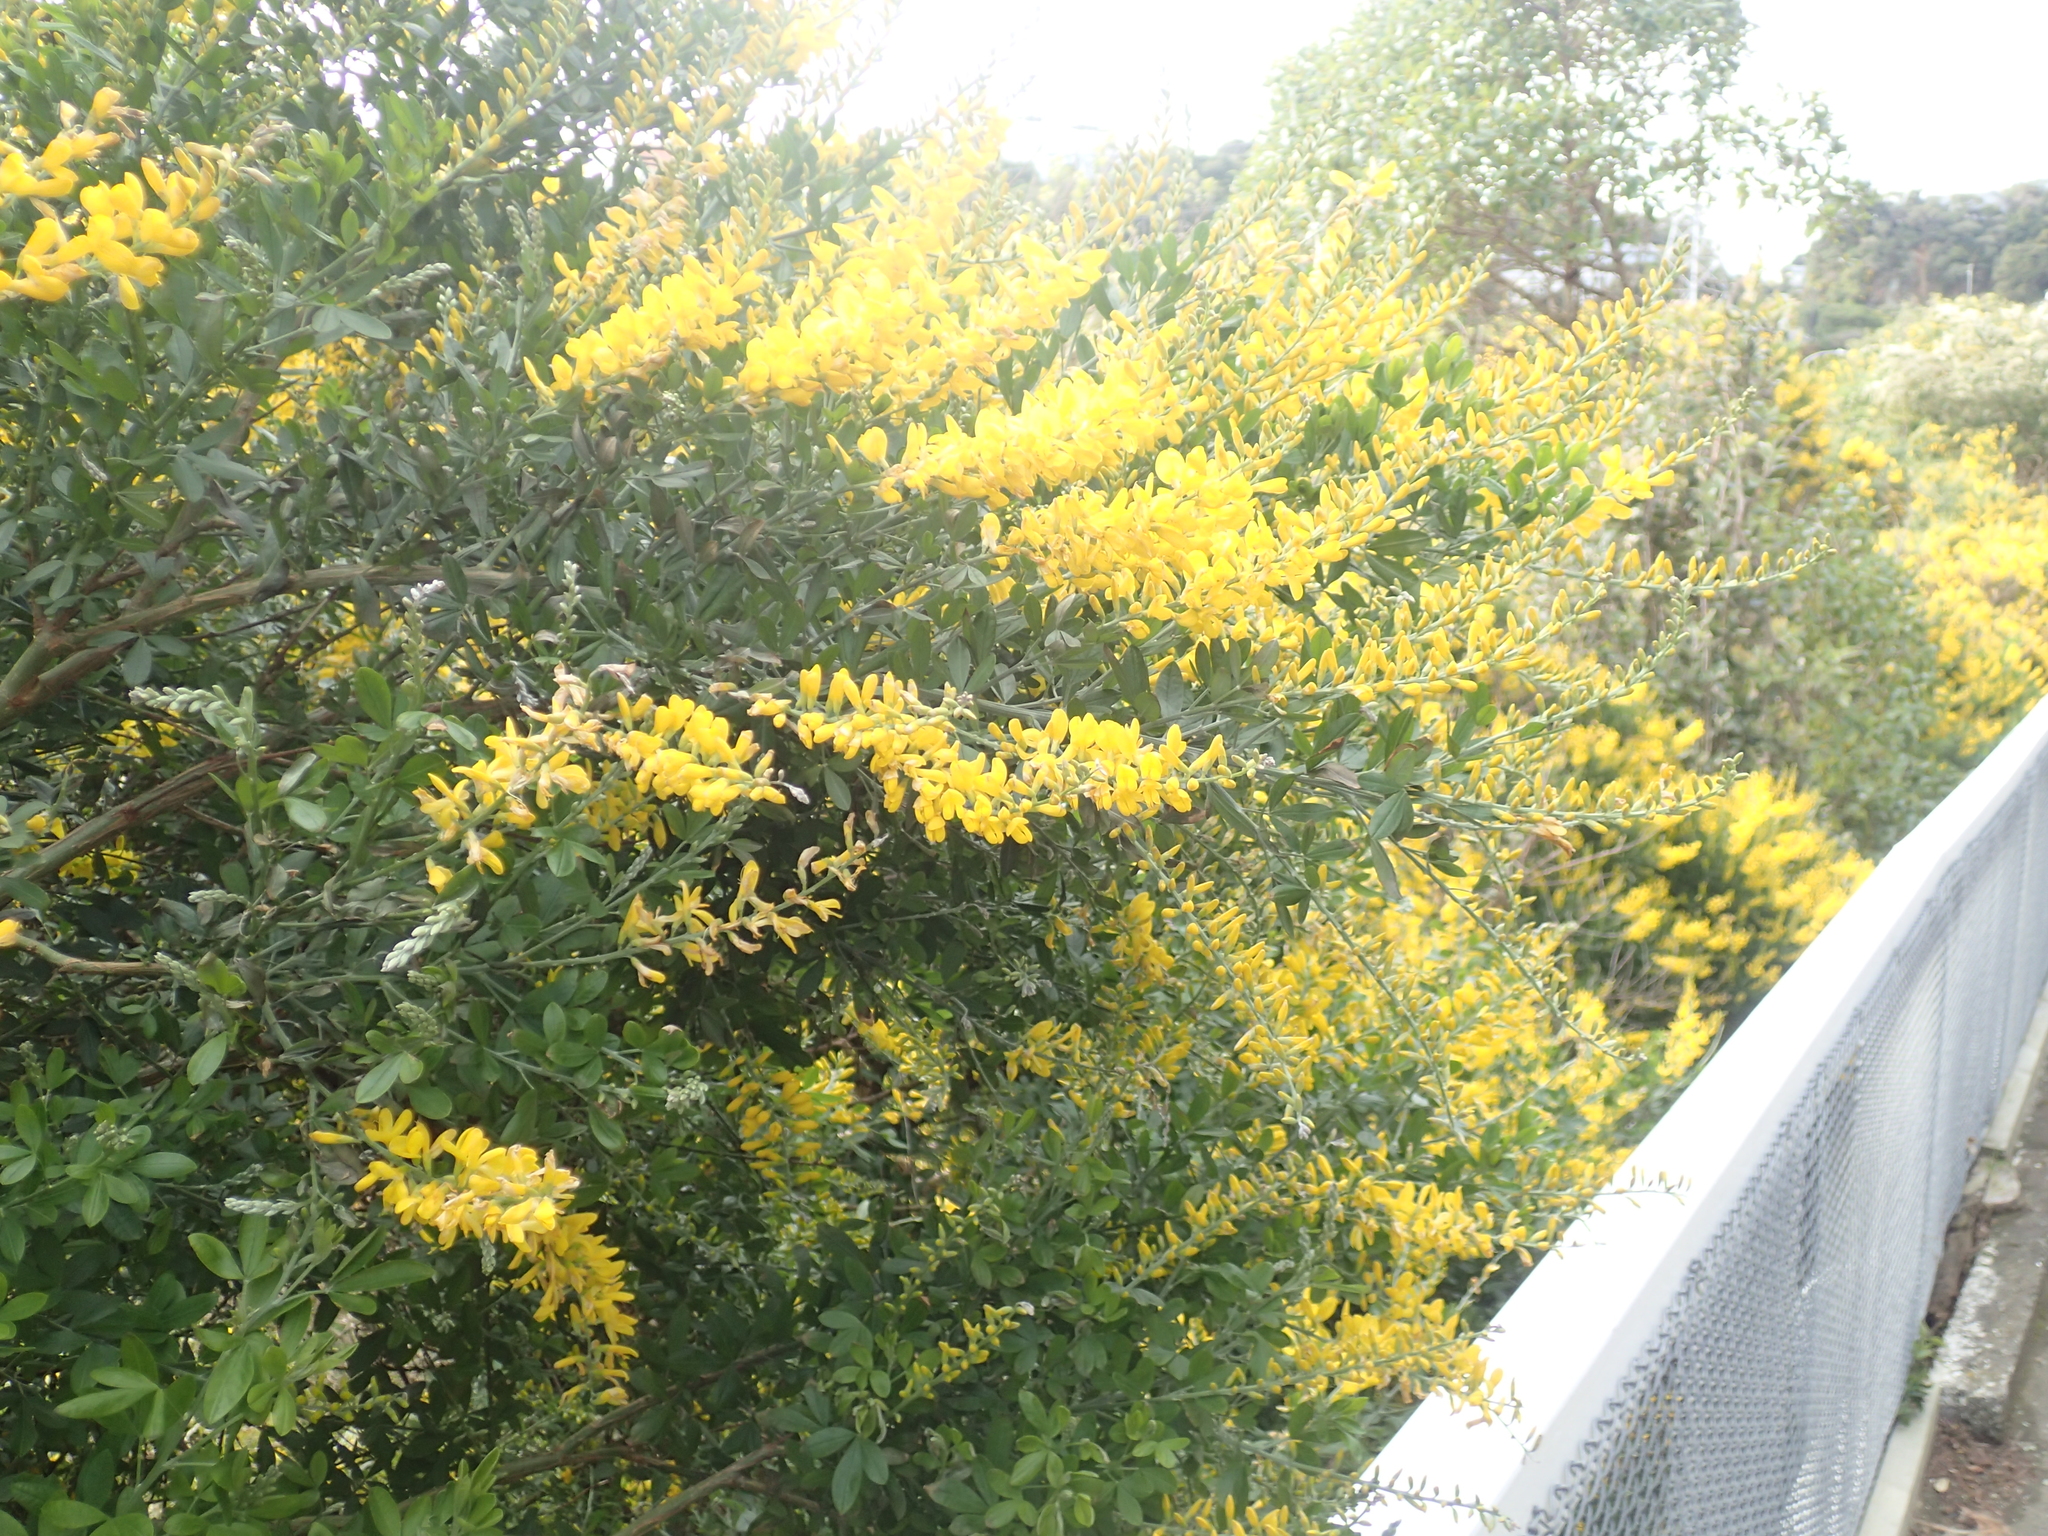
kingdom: Plantae
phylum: Tracheophyta
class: Magnoliopsida
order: Fabales
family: Fabaceae
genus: Genista
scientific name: Genista stenopetala
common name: Leafy broom
